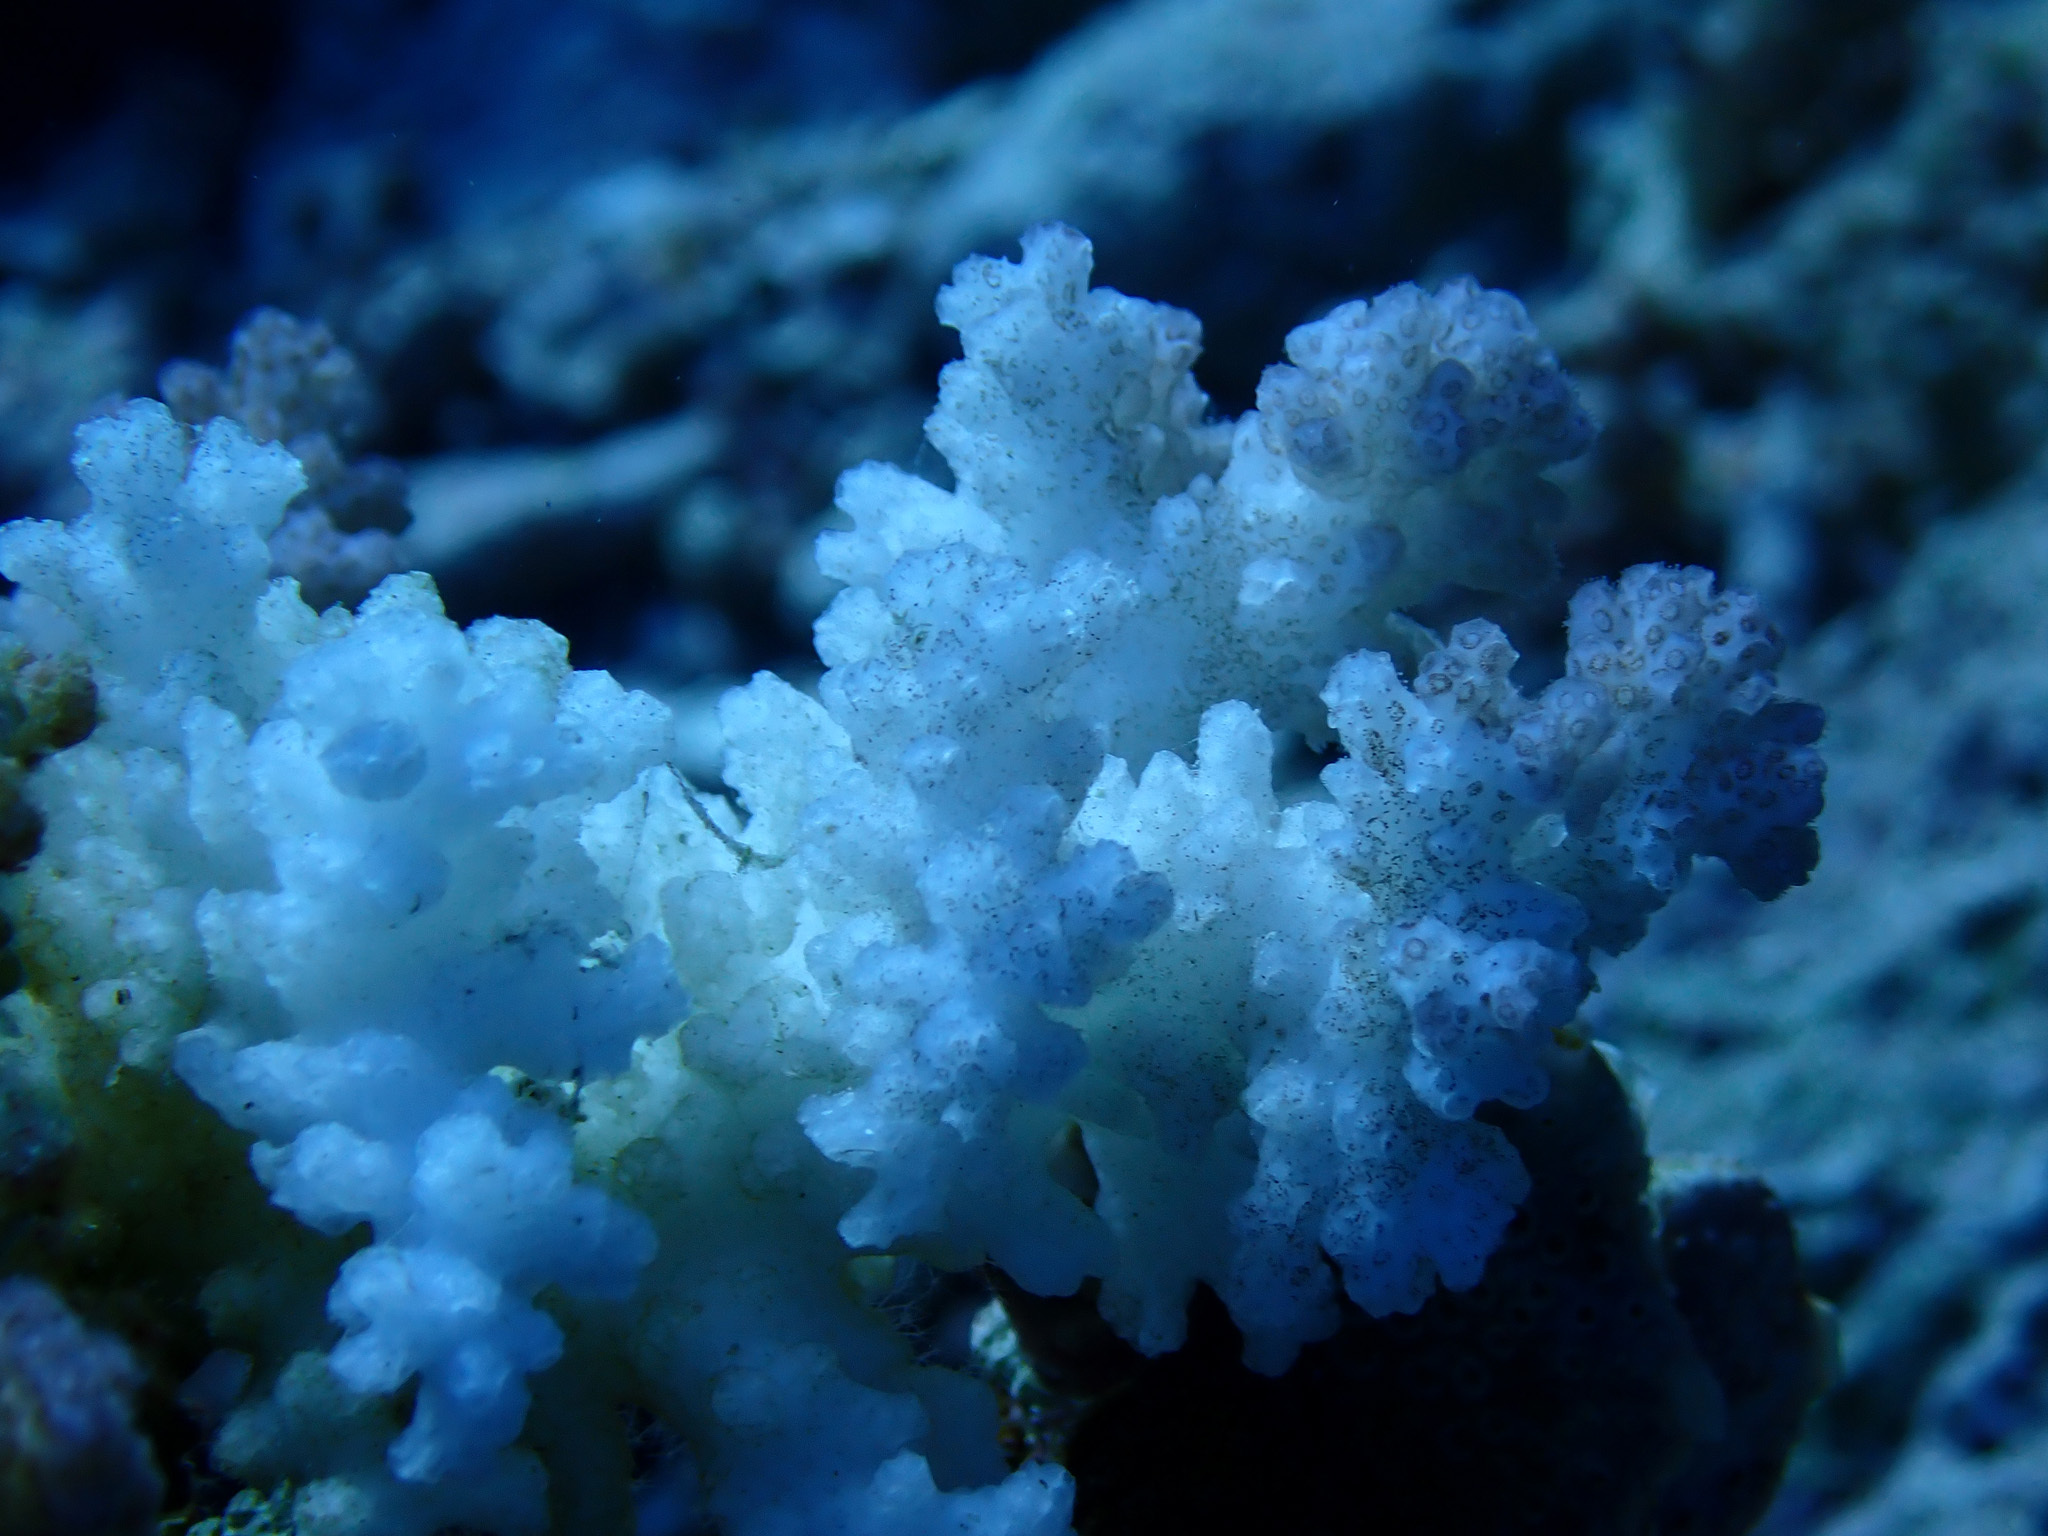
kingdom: Animalia
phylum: Cnidaria
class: Anthozoa
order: Scleractinia
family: Pocilloporidae
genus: Pocillopora
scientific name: Pocillopora verrucosa
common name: Cauliflower coral
